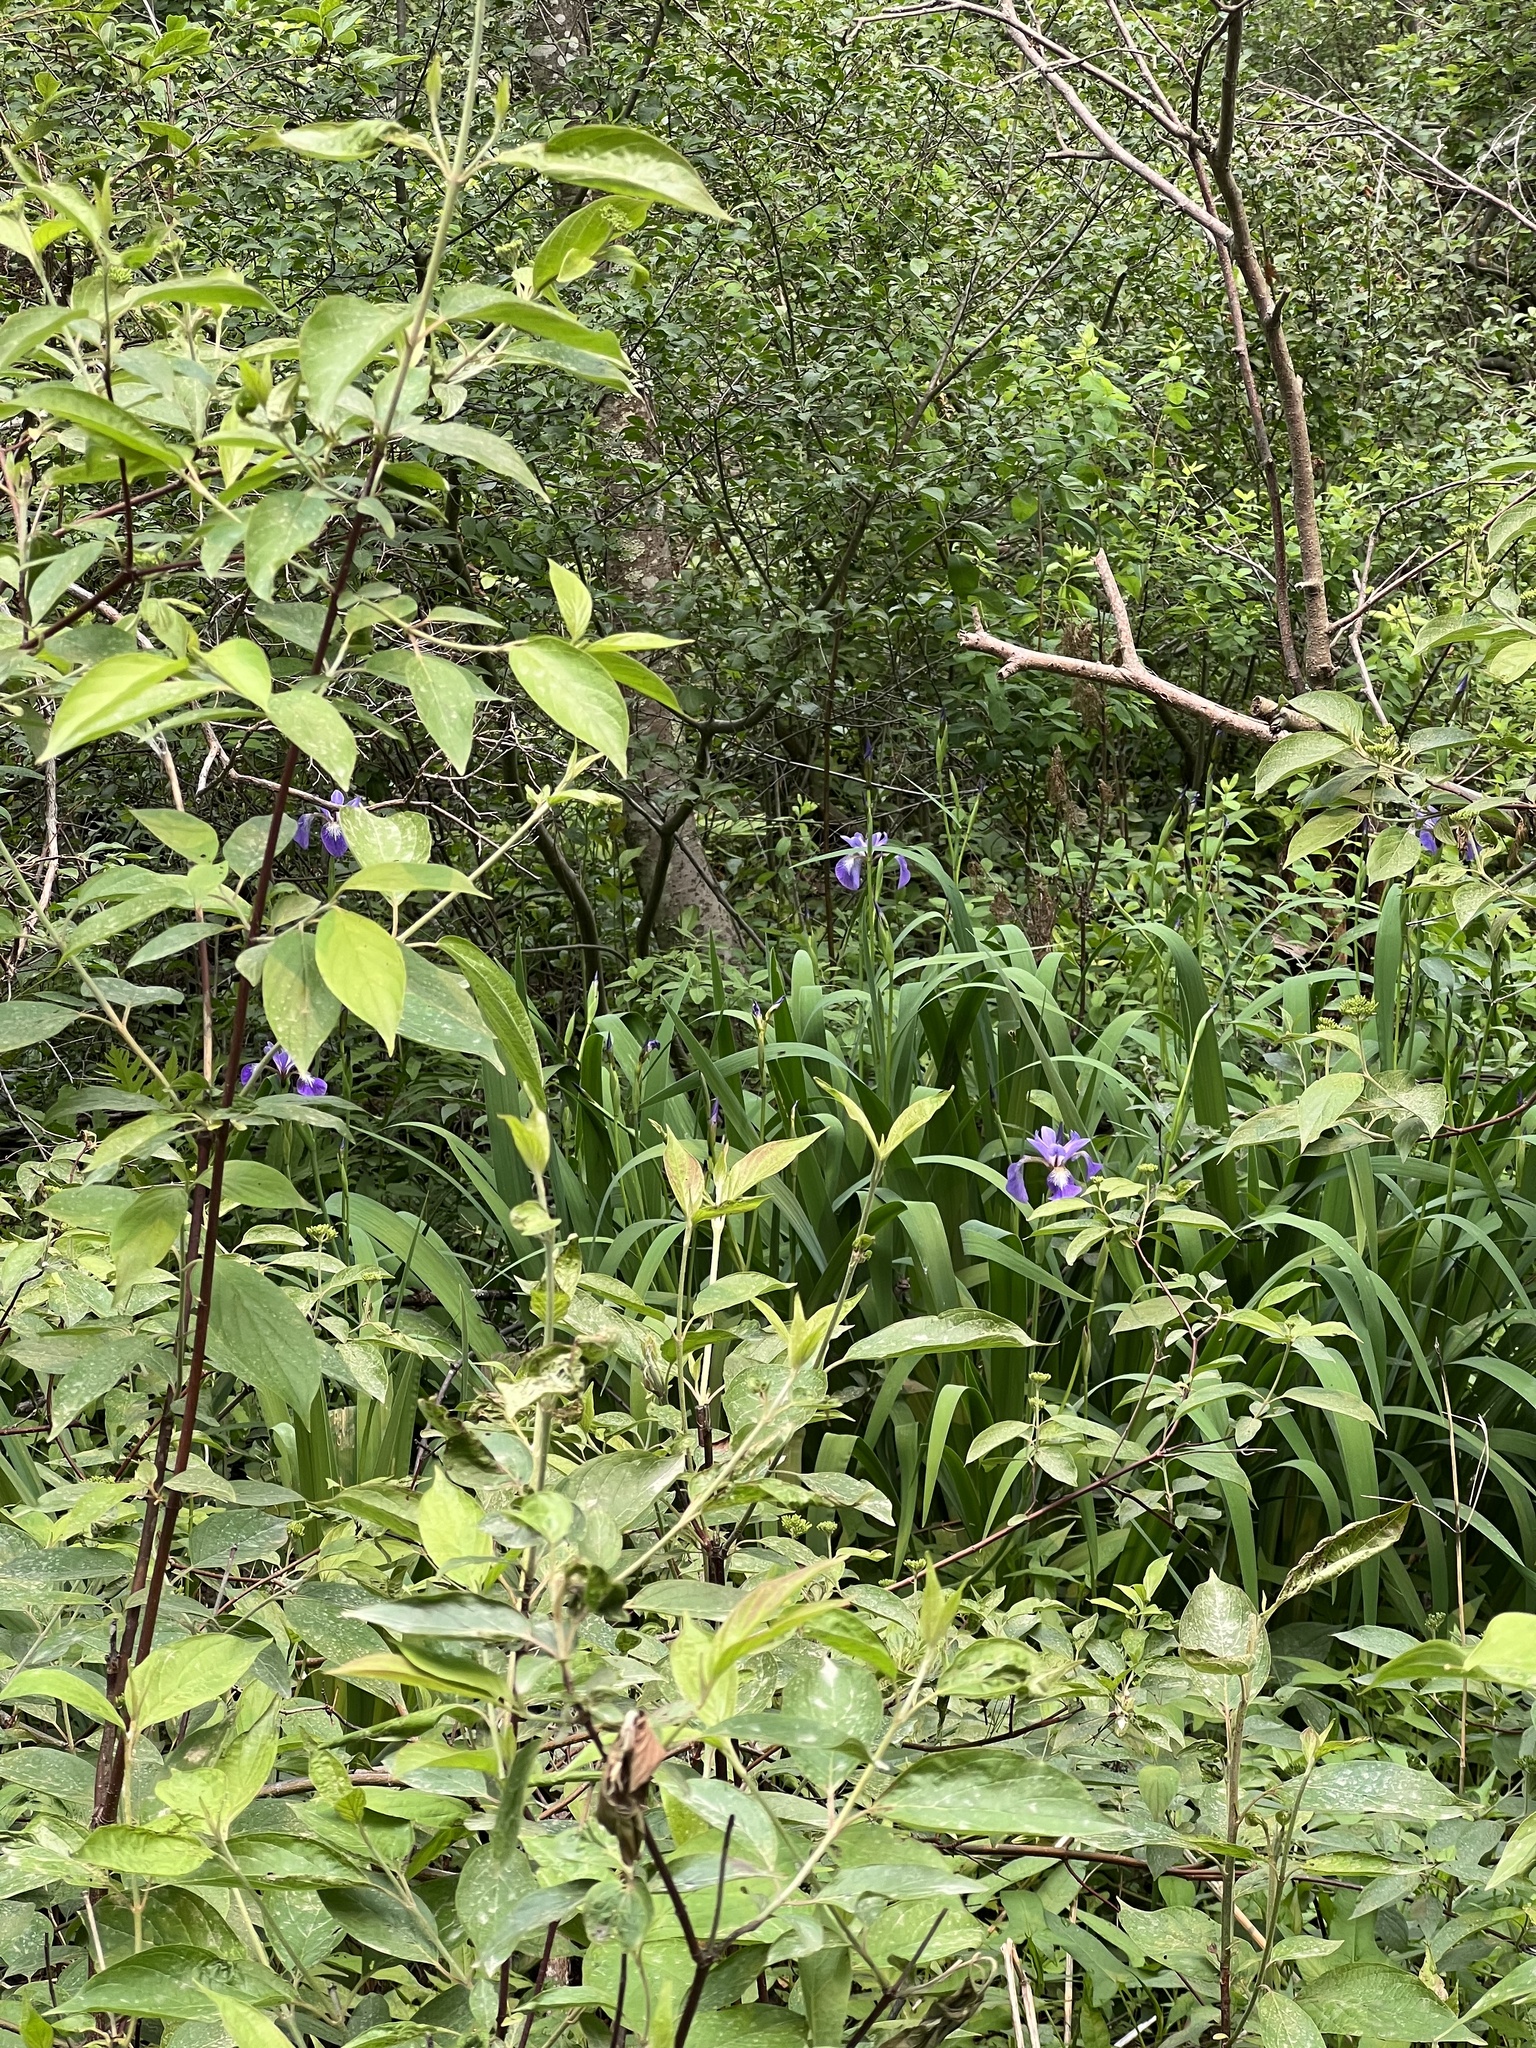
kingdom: Plantae
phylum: Tracheophyta
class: Liliopsida
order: Asparagales
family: Iridaceae
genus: Iris
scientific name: Iris versicolor
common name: Purple iris
